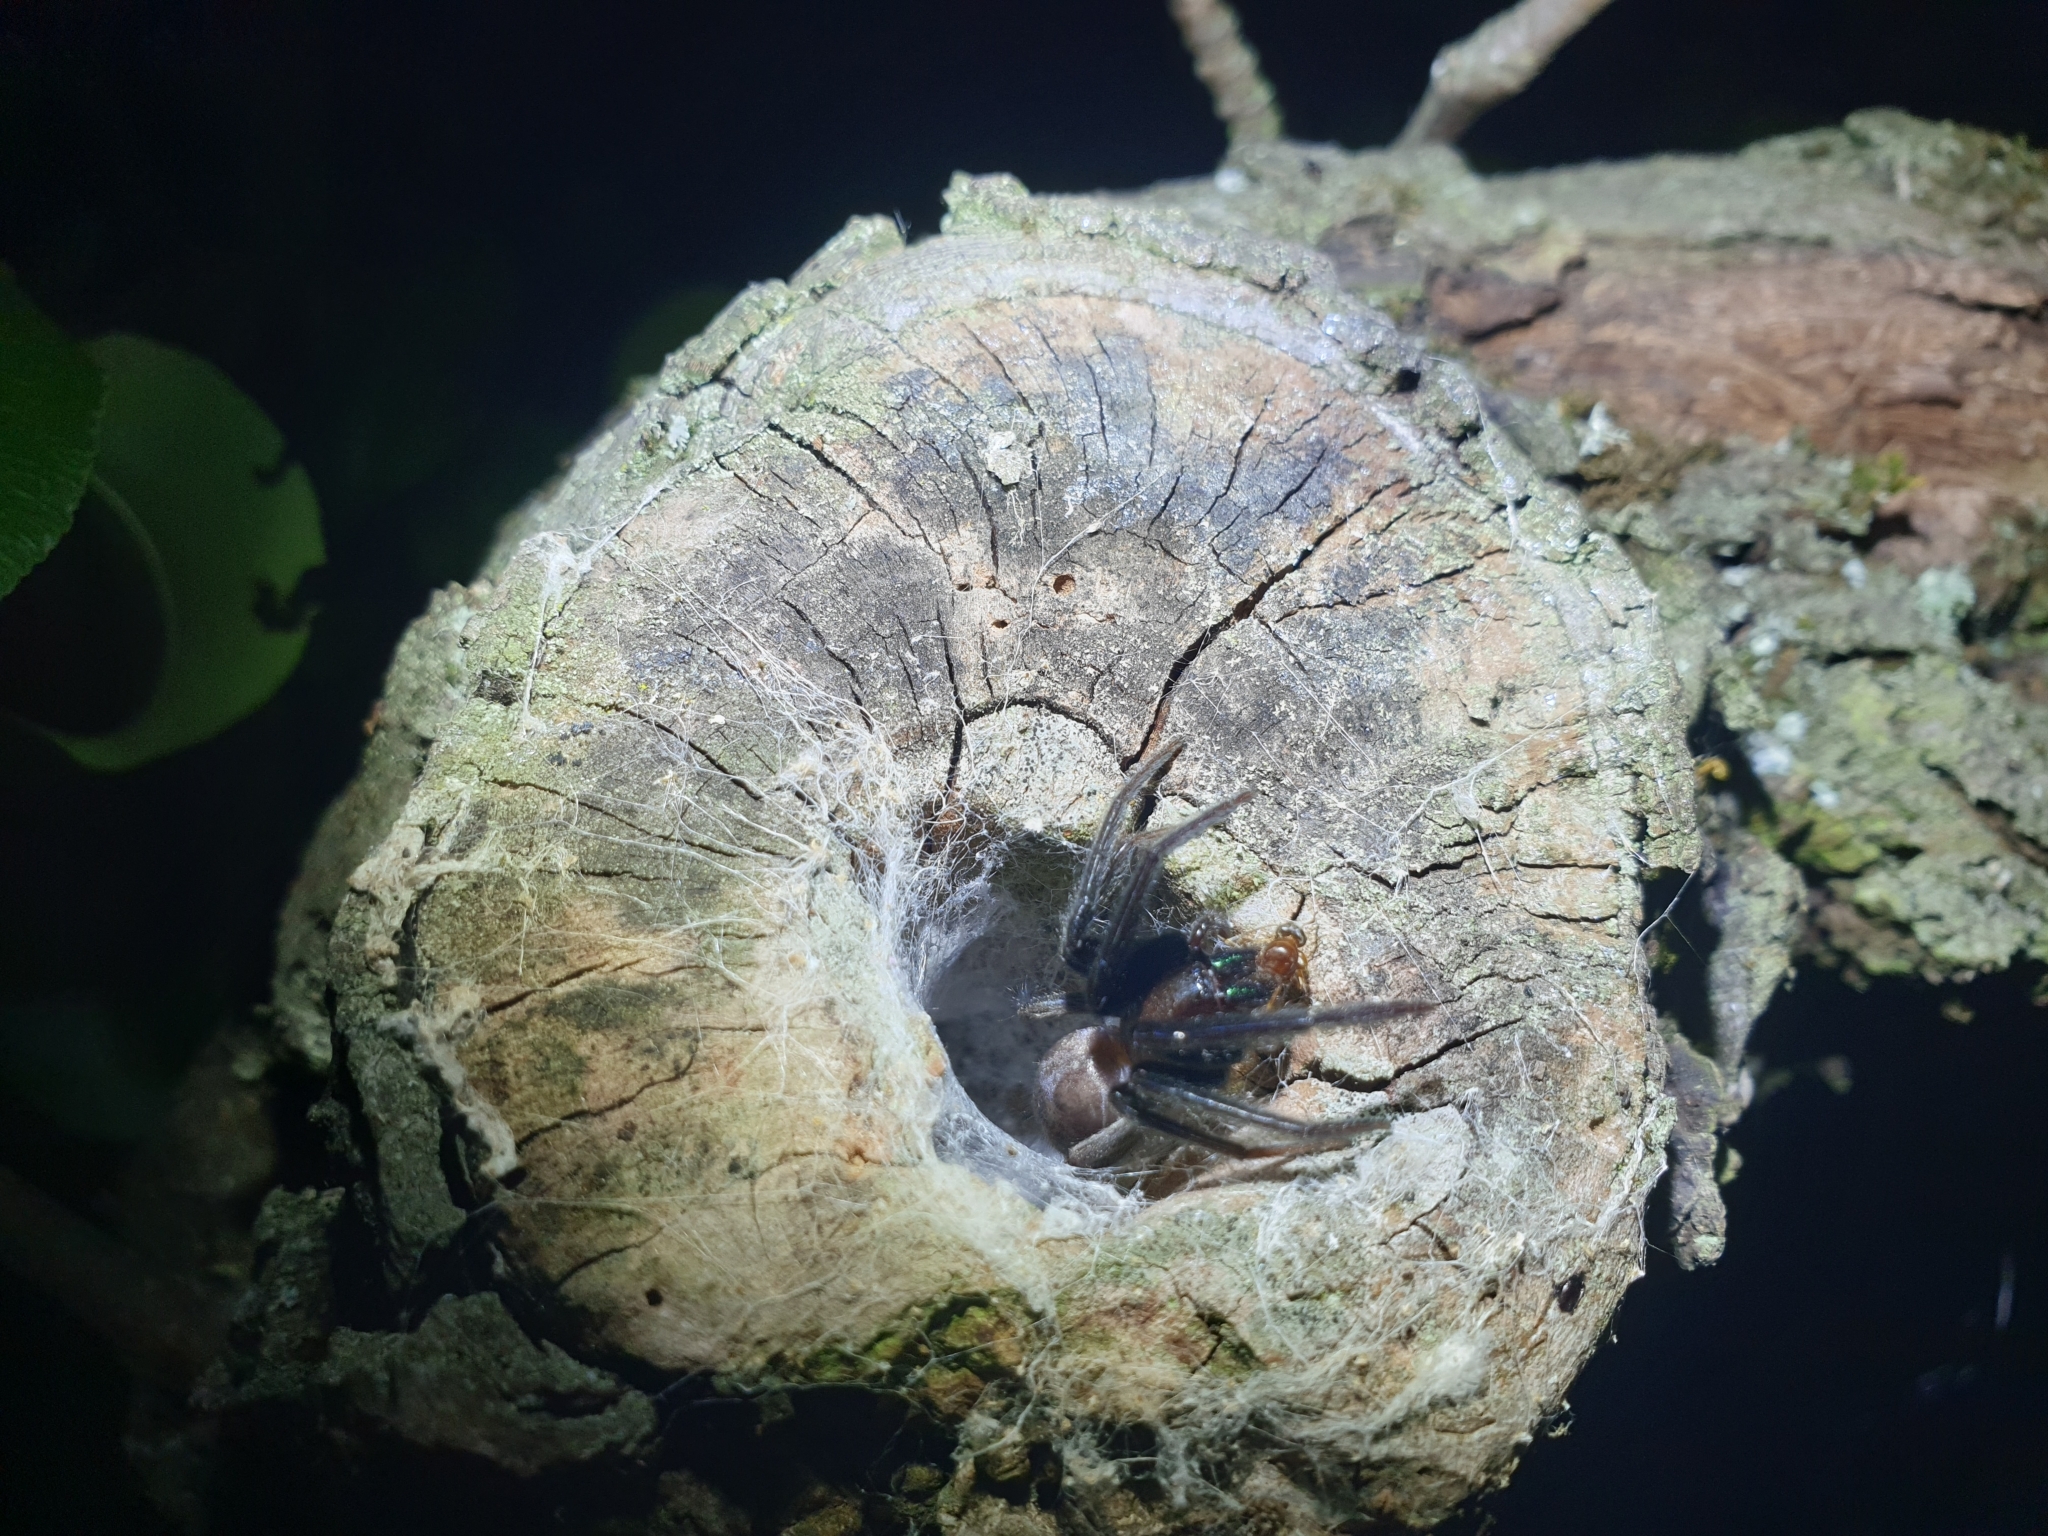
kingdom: Animalia
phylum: Arthropoda
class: Arachnida
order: Araneae
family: Segestriidae
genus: Segestria
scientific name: Segestria florentina
